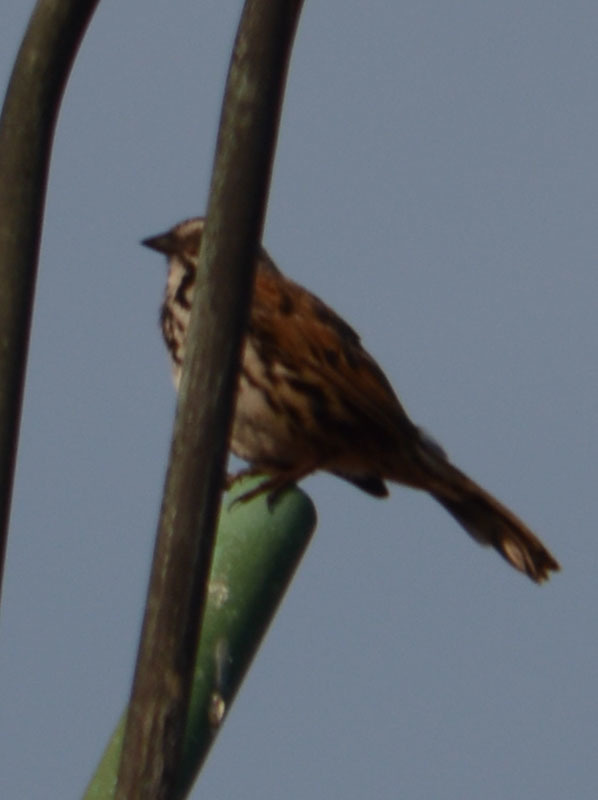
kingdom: Animalia
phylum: Chordata
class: Aves
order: Passeriformes
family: Passerellidae
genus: Melospiza
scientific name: Melospiza melodia
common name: Song sparrow
